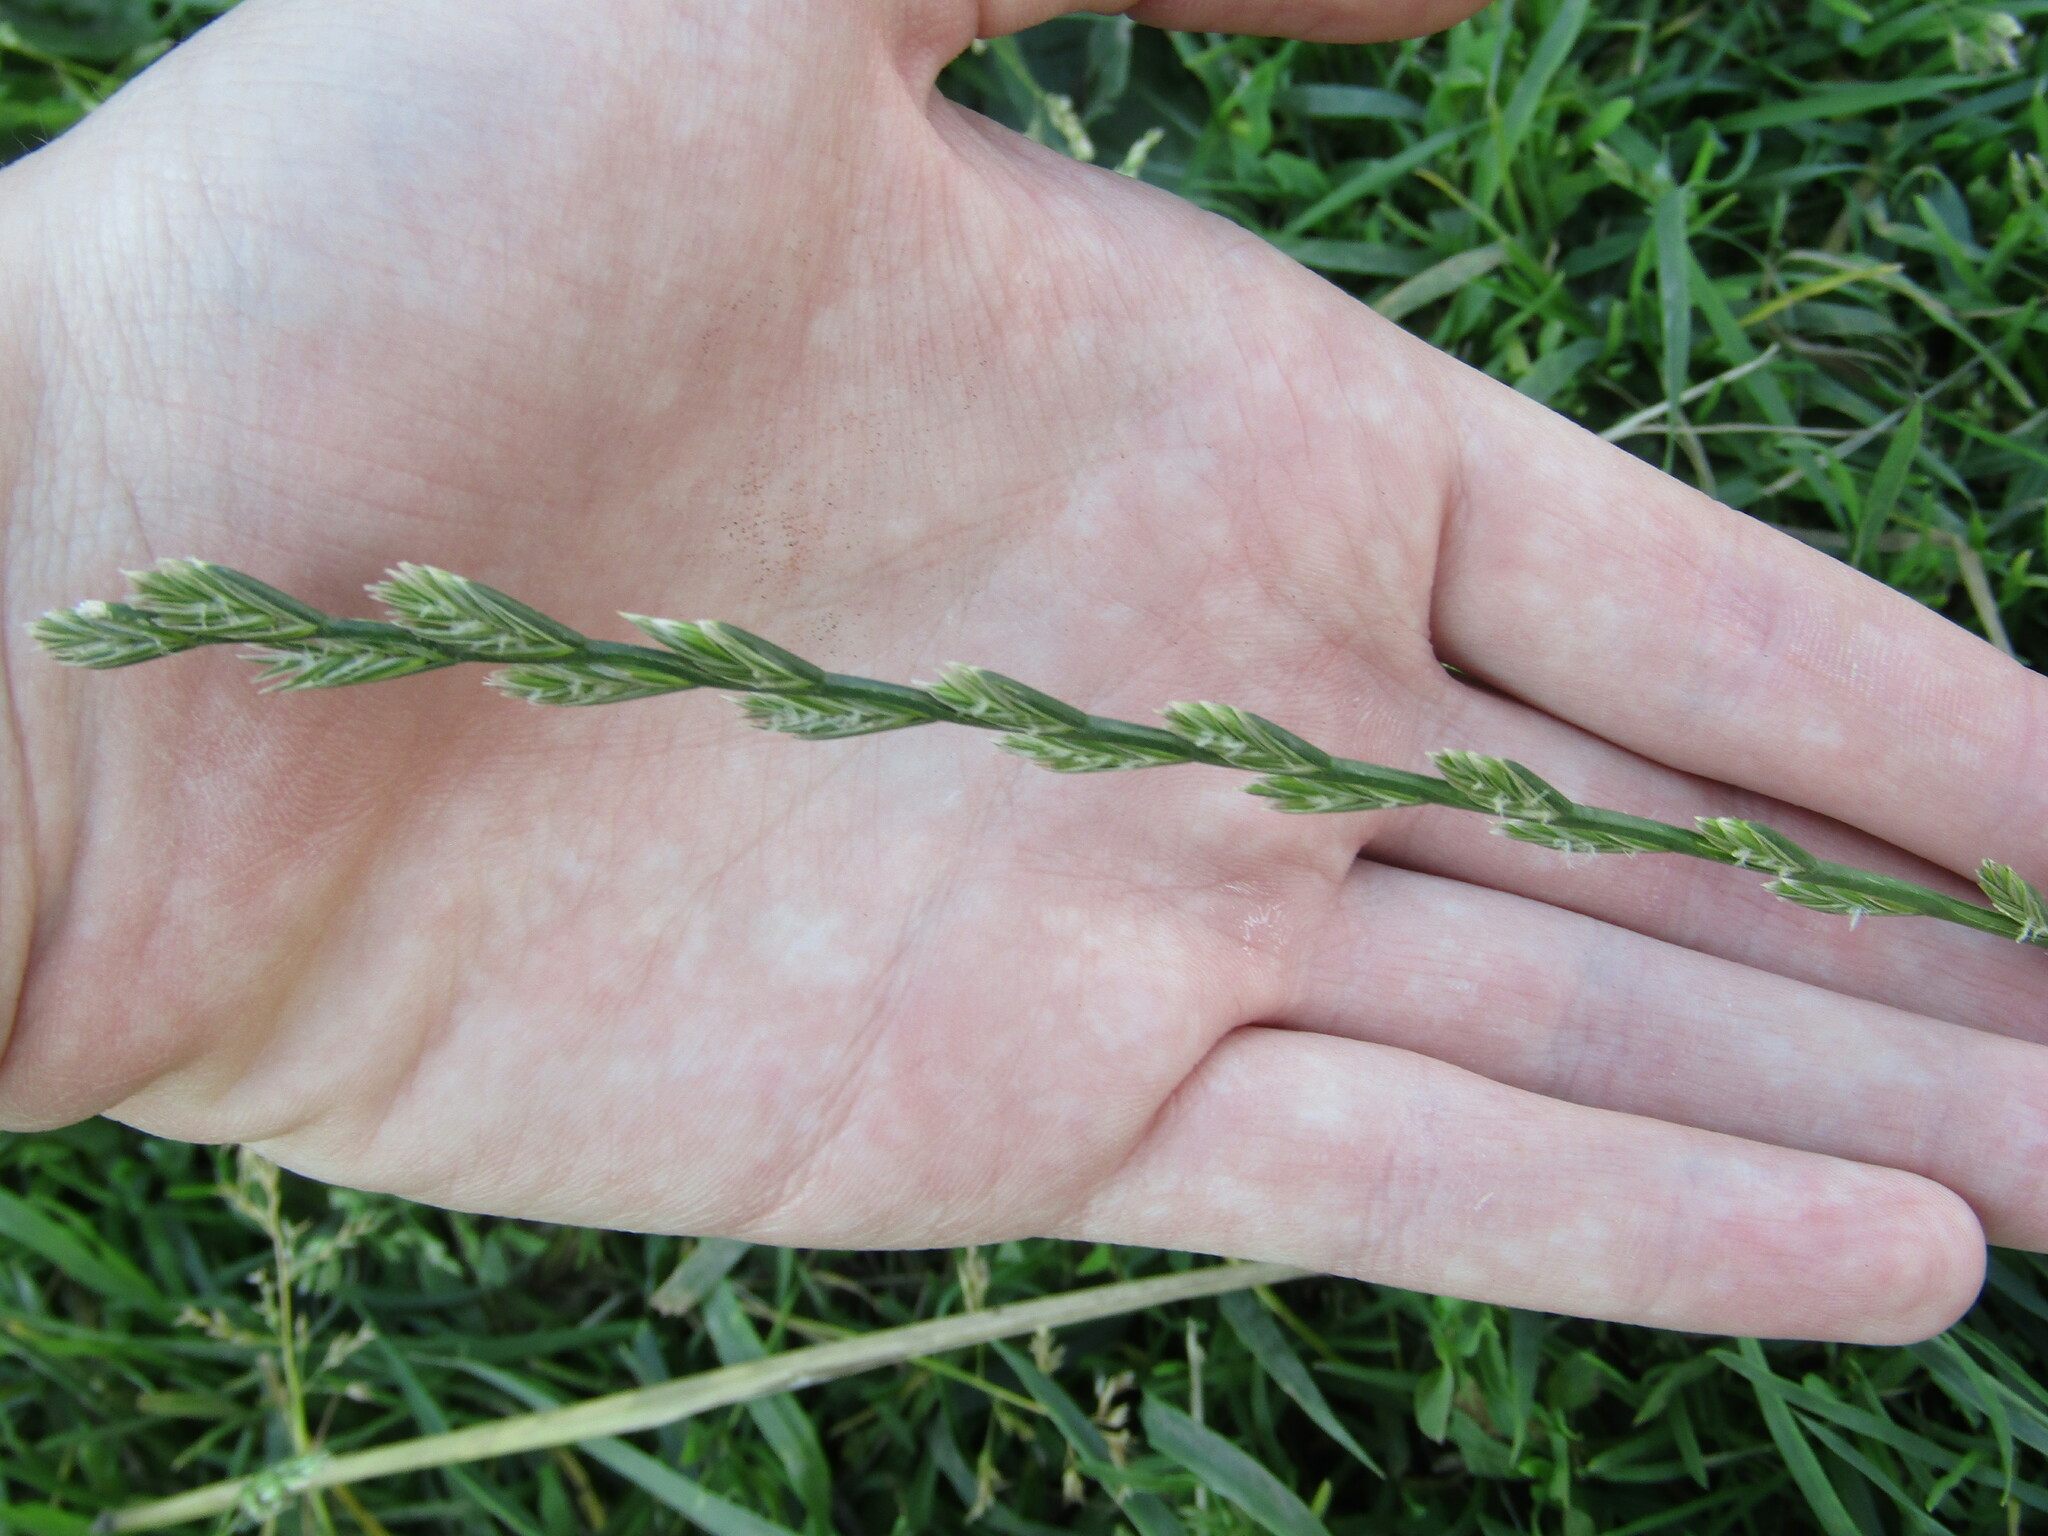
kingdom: Plantae
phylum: Tracheophyta
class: Liliopsida
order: Poales
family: Poaceae
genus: Lolium
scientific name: Lolium perenne
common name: Perennial ryegrass
